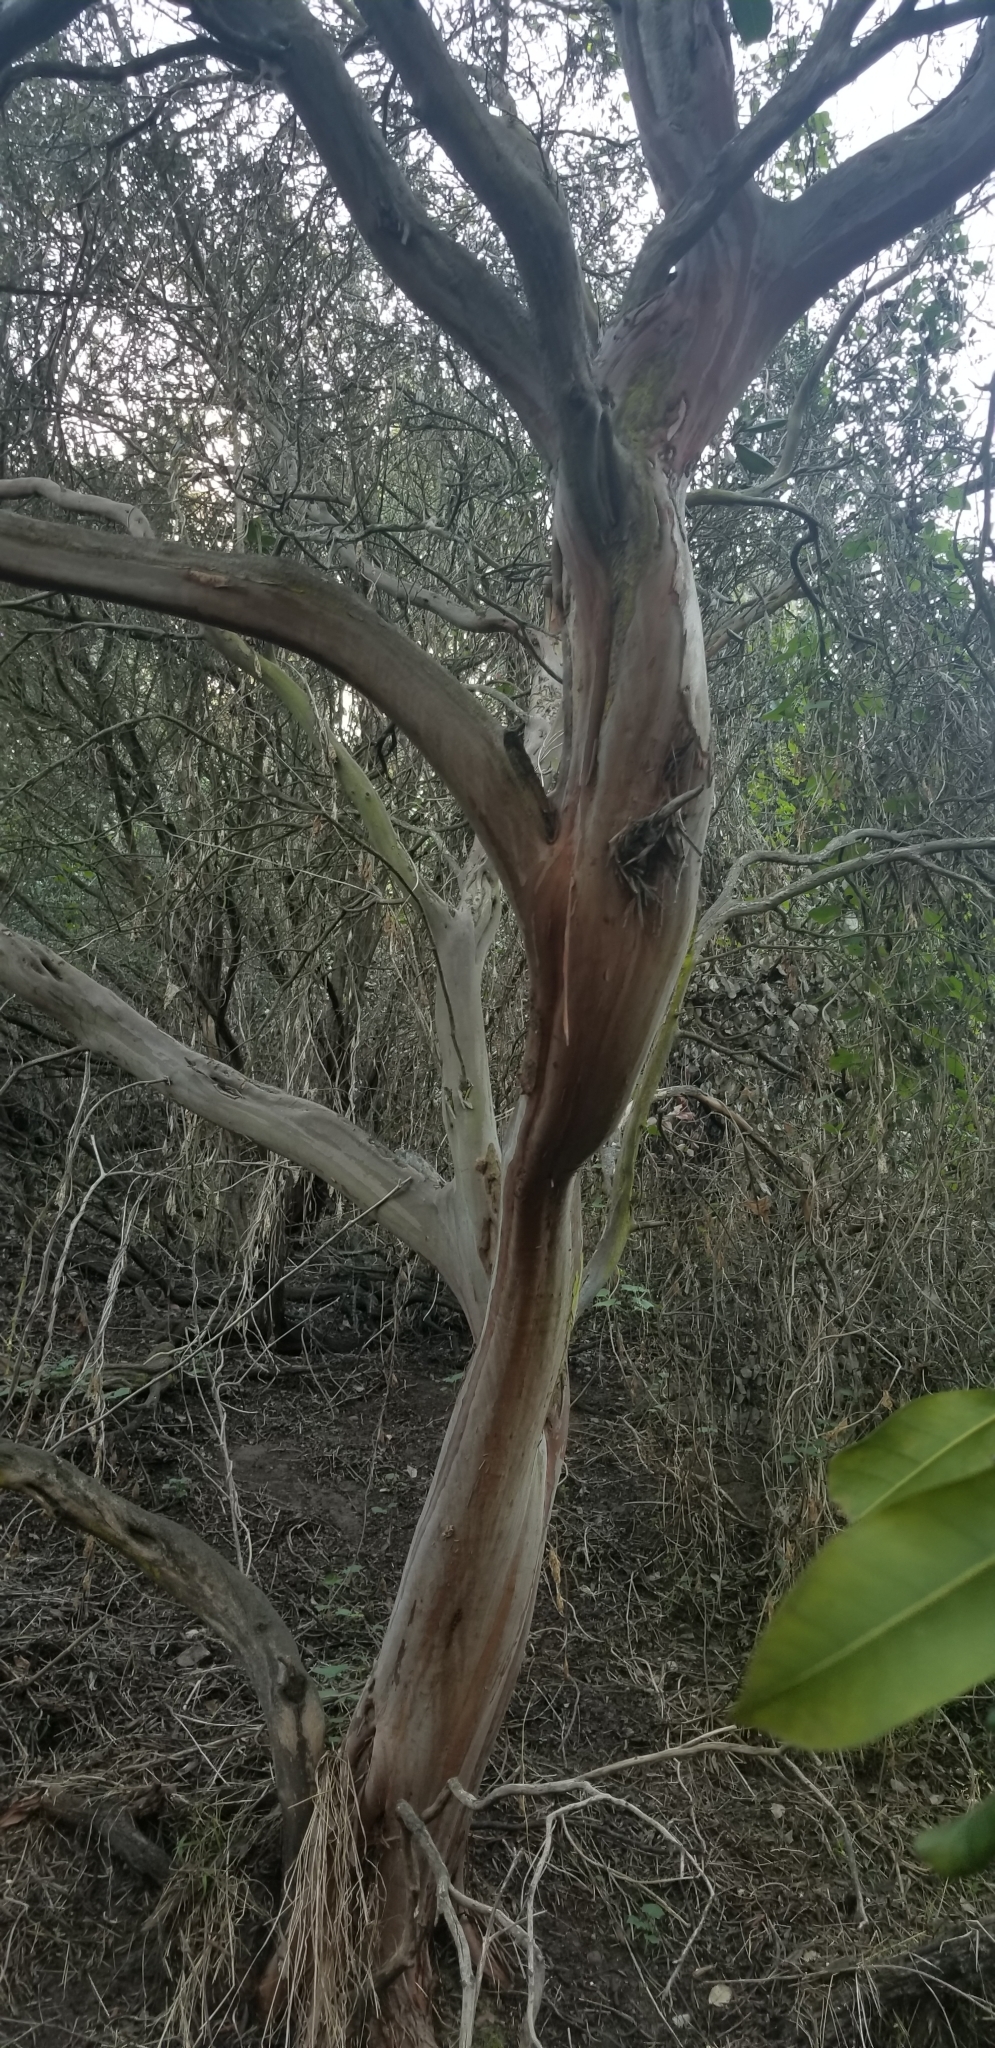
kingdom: Plantae
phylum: Tracheophyta
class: Magnoliopsida
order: Ericales
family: Ericaceae
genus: Arctostaphylos
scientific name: Arctostaphylos bicolor
